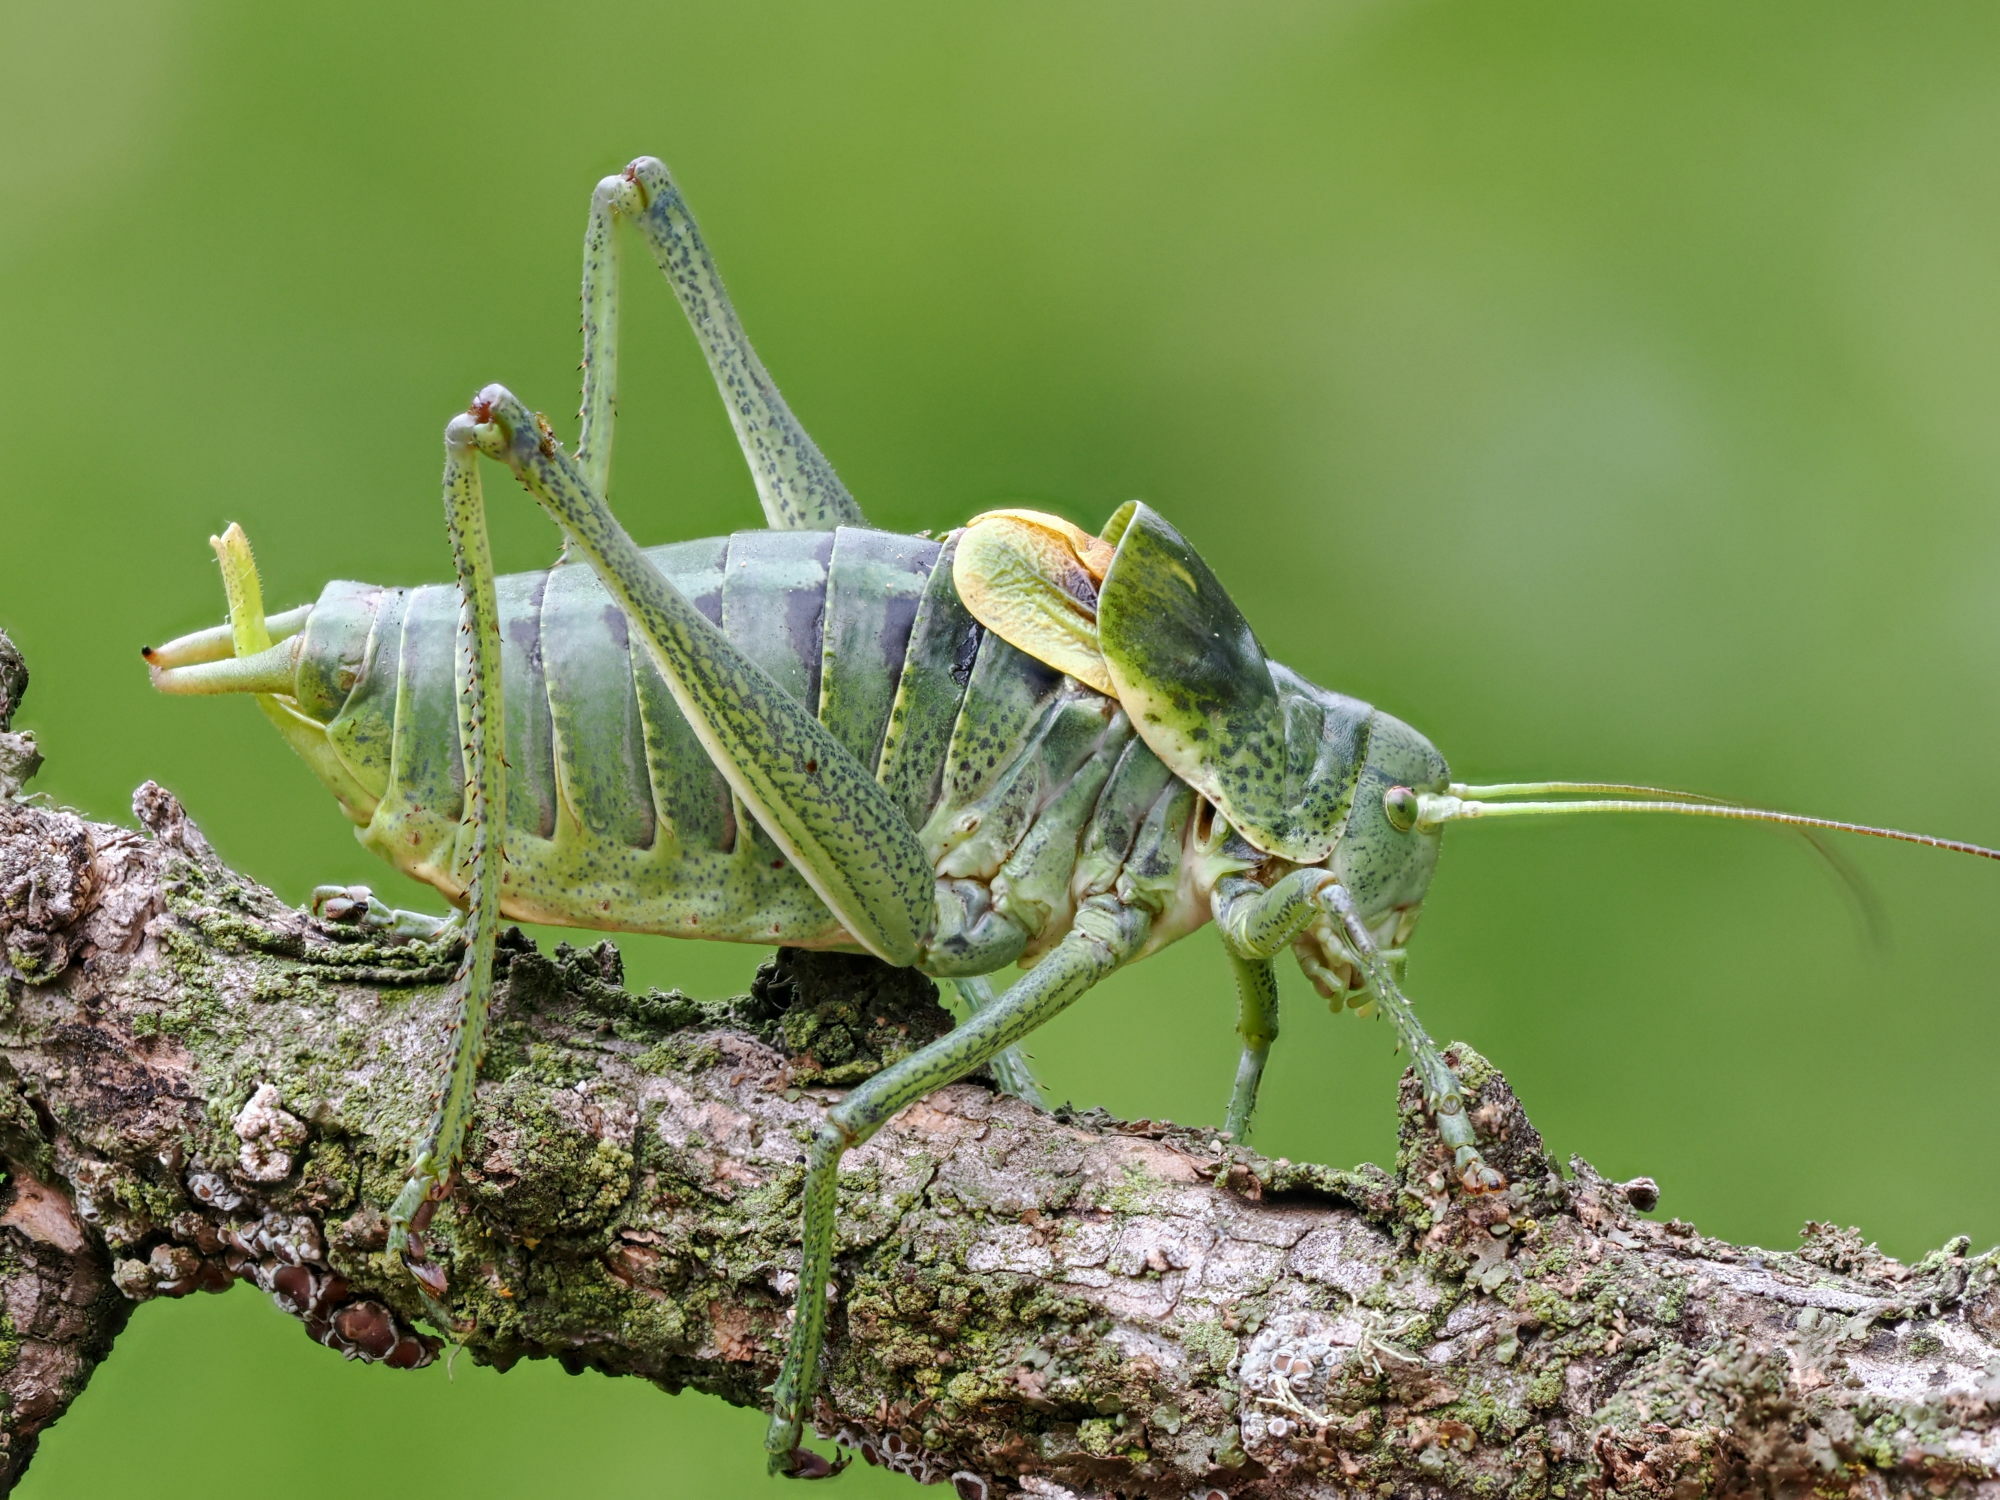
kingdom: Animalia
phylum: Arthropoda
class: Insecta
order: Orthoptera
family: Tettigoniidae
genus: Polysarcus
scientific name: Polysarcus denticauda
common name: Large saw-tailed bush-cricket
